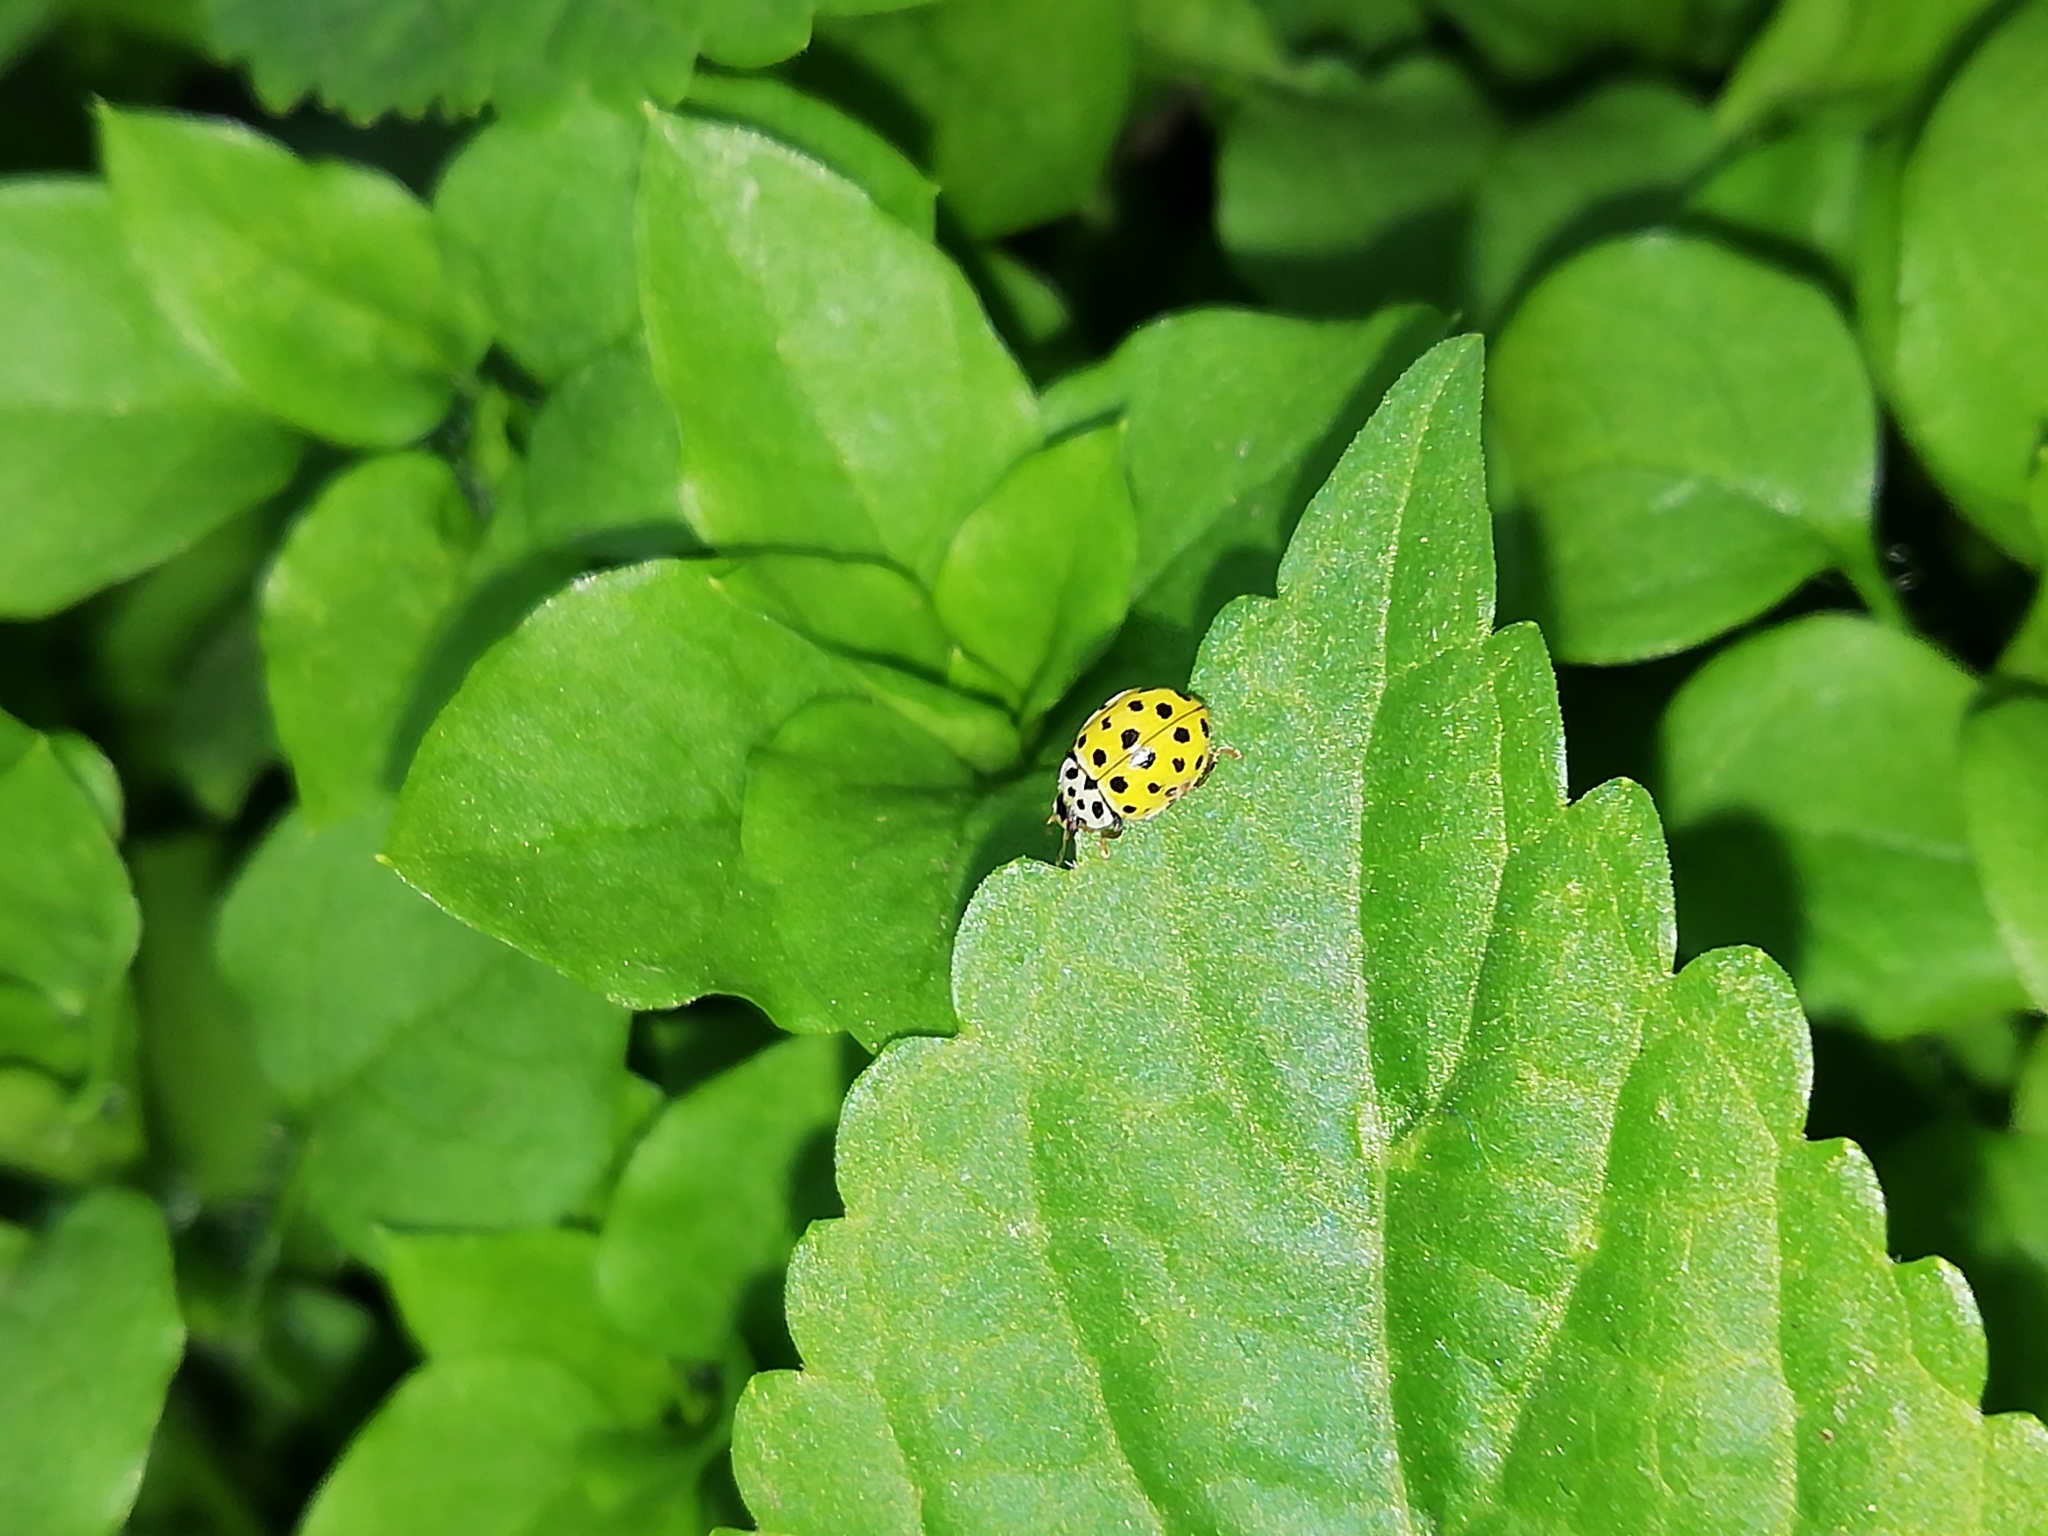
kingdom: Animalia
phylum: Arthropoda
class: Insecta
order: Coleoptera
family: Coccinellidae
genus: Psyllobora
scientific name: Psyllobora vigintiduopunctata
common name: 22-spot ladybird
